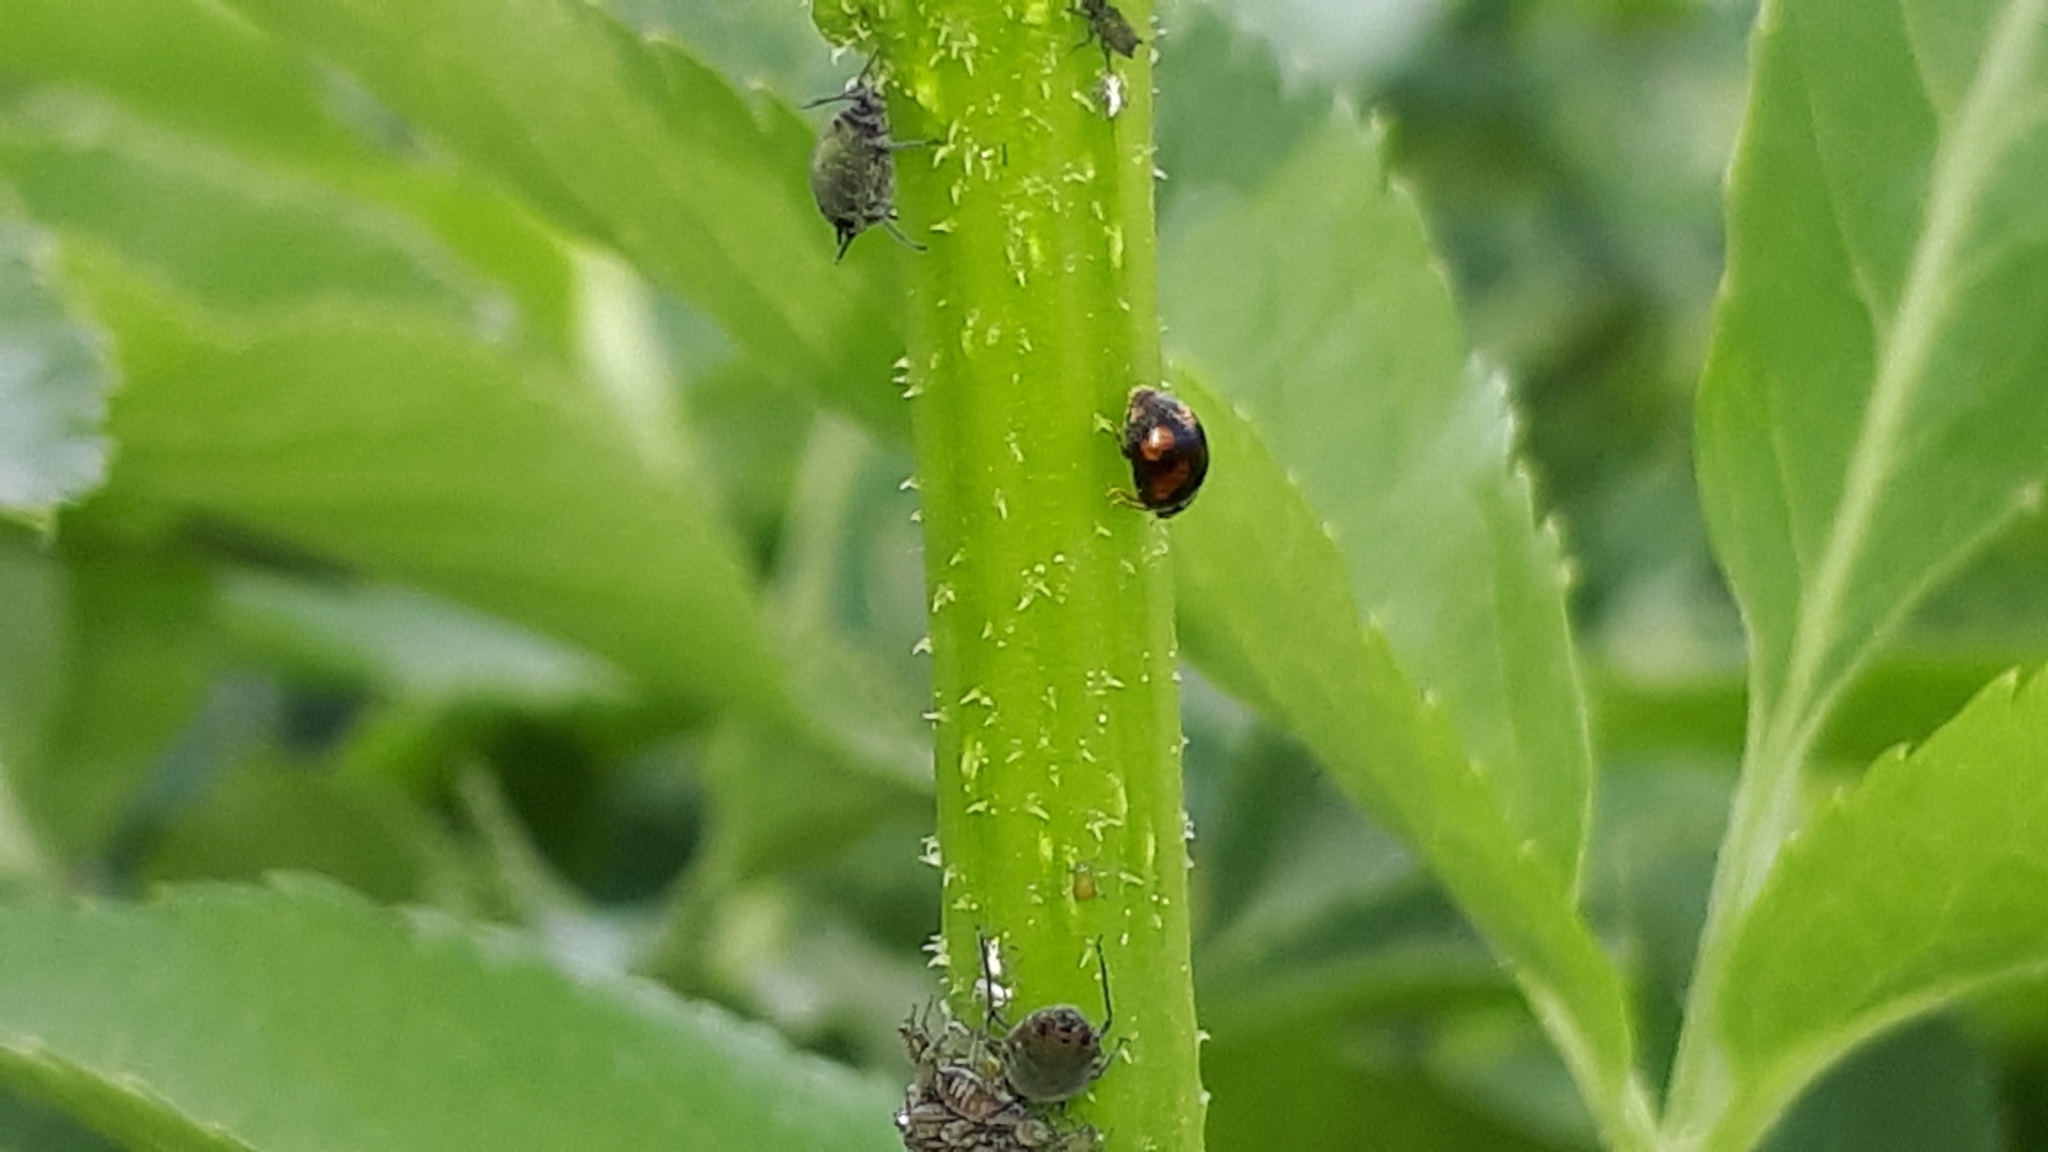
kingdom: Animalia
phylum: Arthropoda
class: Insecta
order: Coleoptera
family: Coccinellidae
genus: Nephus
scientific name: Nephus quadrimaculatus
